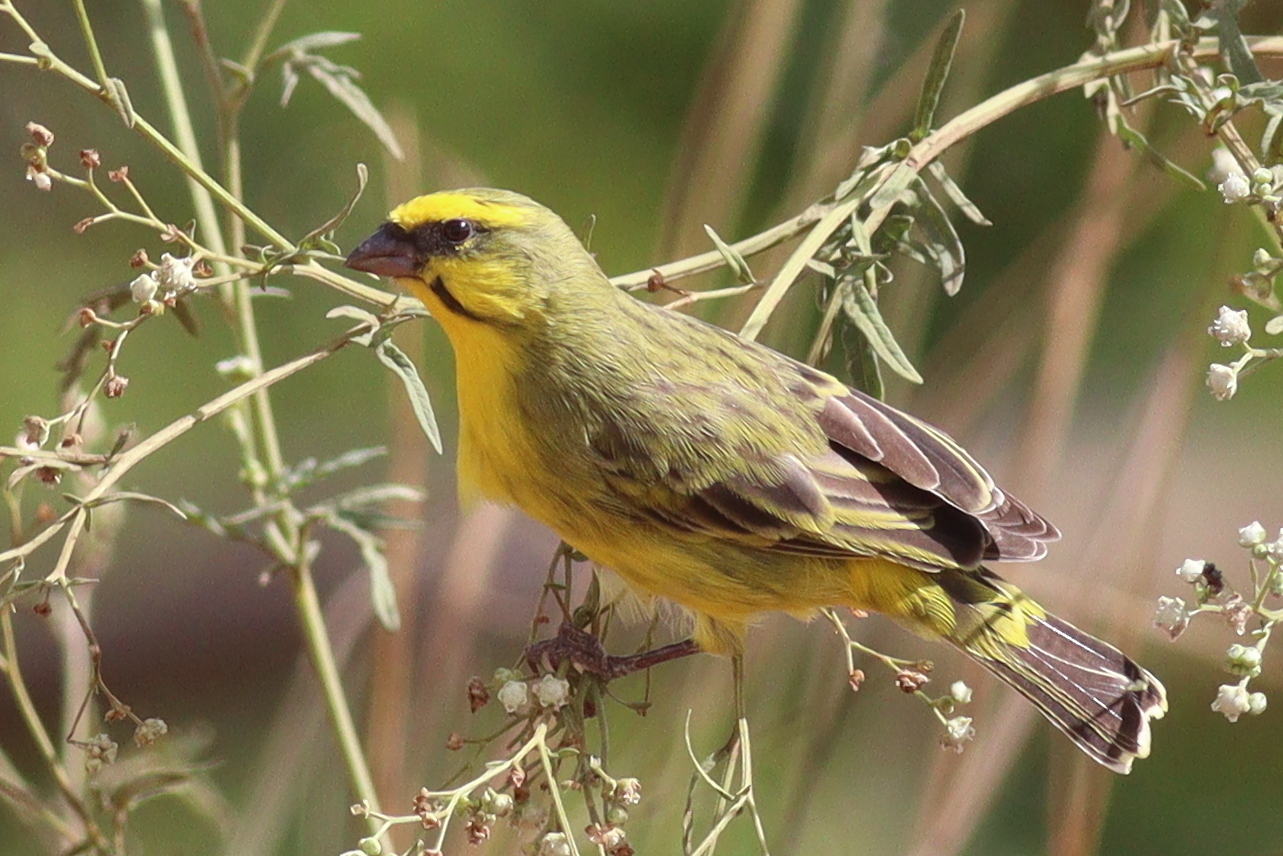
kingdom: Animalia
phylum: Chordata
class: Aves
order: Passeriformes
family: Fringillidae
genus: Crithagra
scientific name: Crithagra mozambica
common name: Yellow-fronted canary
